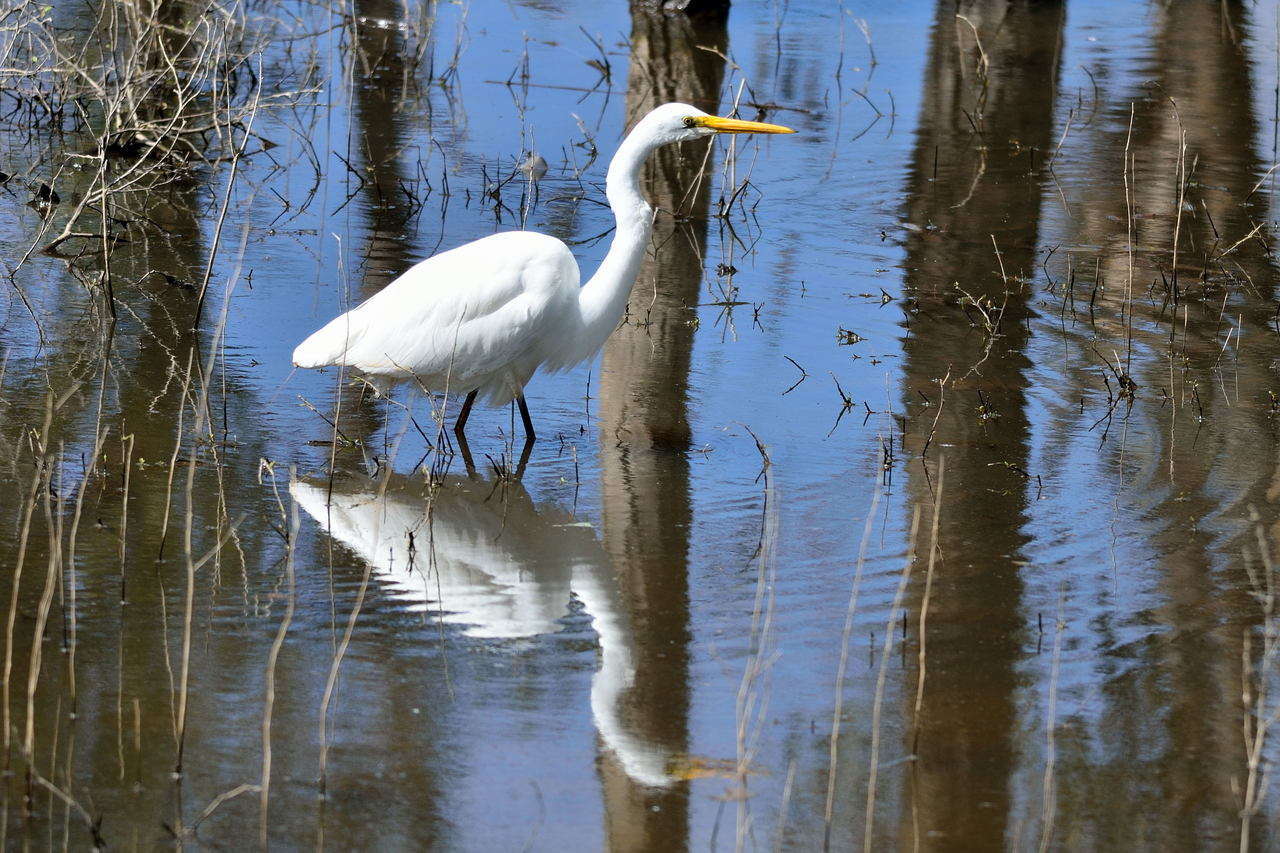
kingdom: Animalia
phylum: Chordata
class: Aves
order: Pelecaniformes
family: Ardeidae
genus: Ardea
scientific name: Ardea modesta
